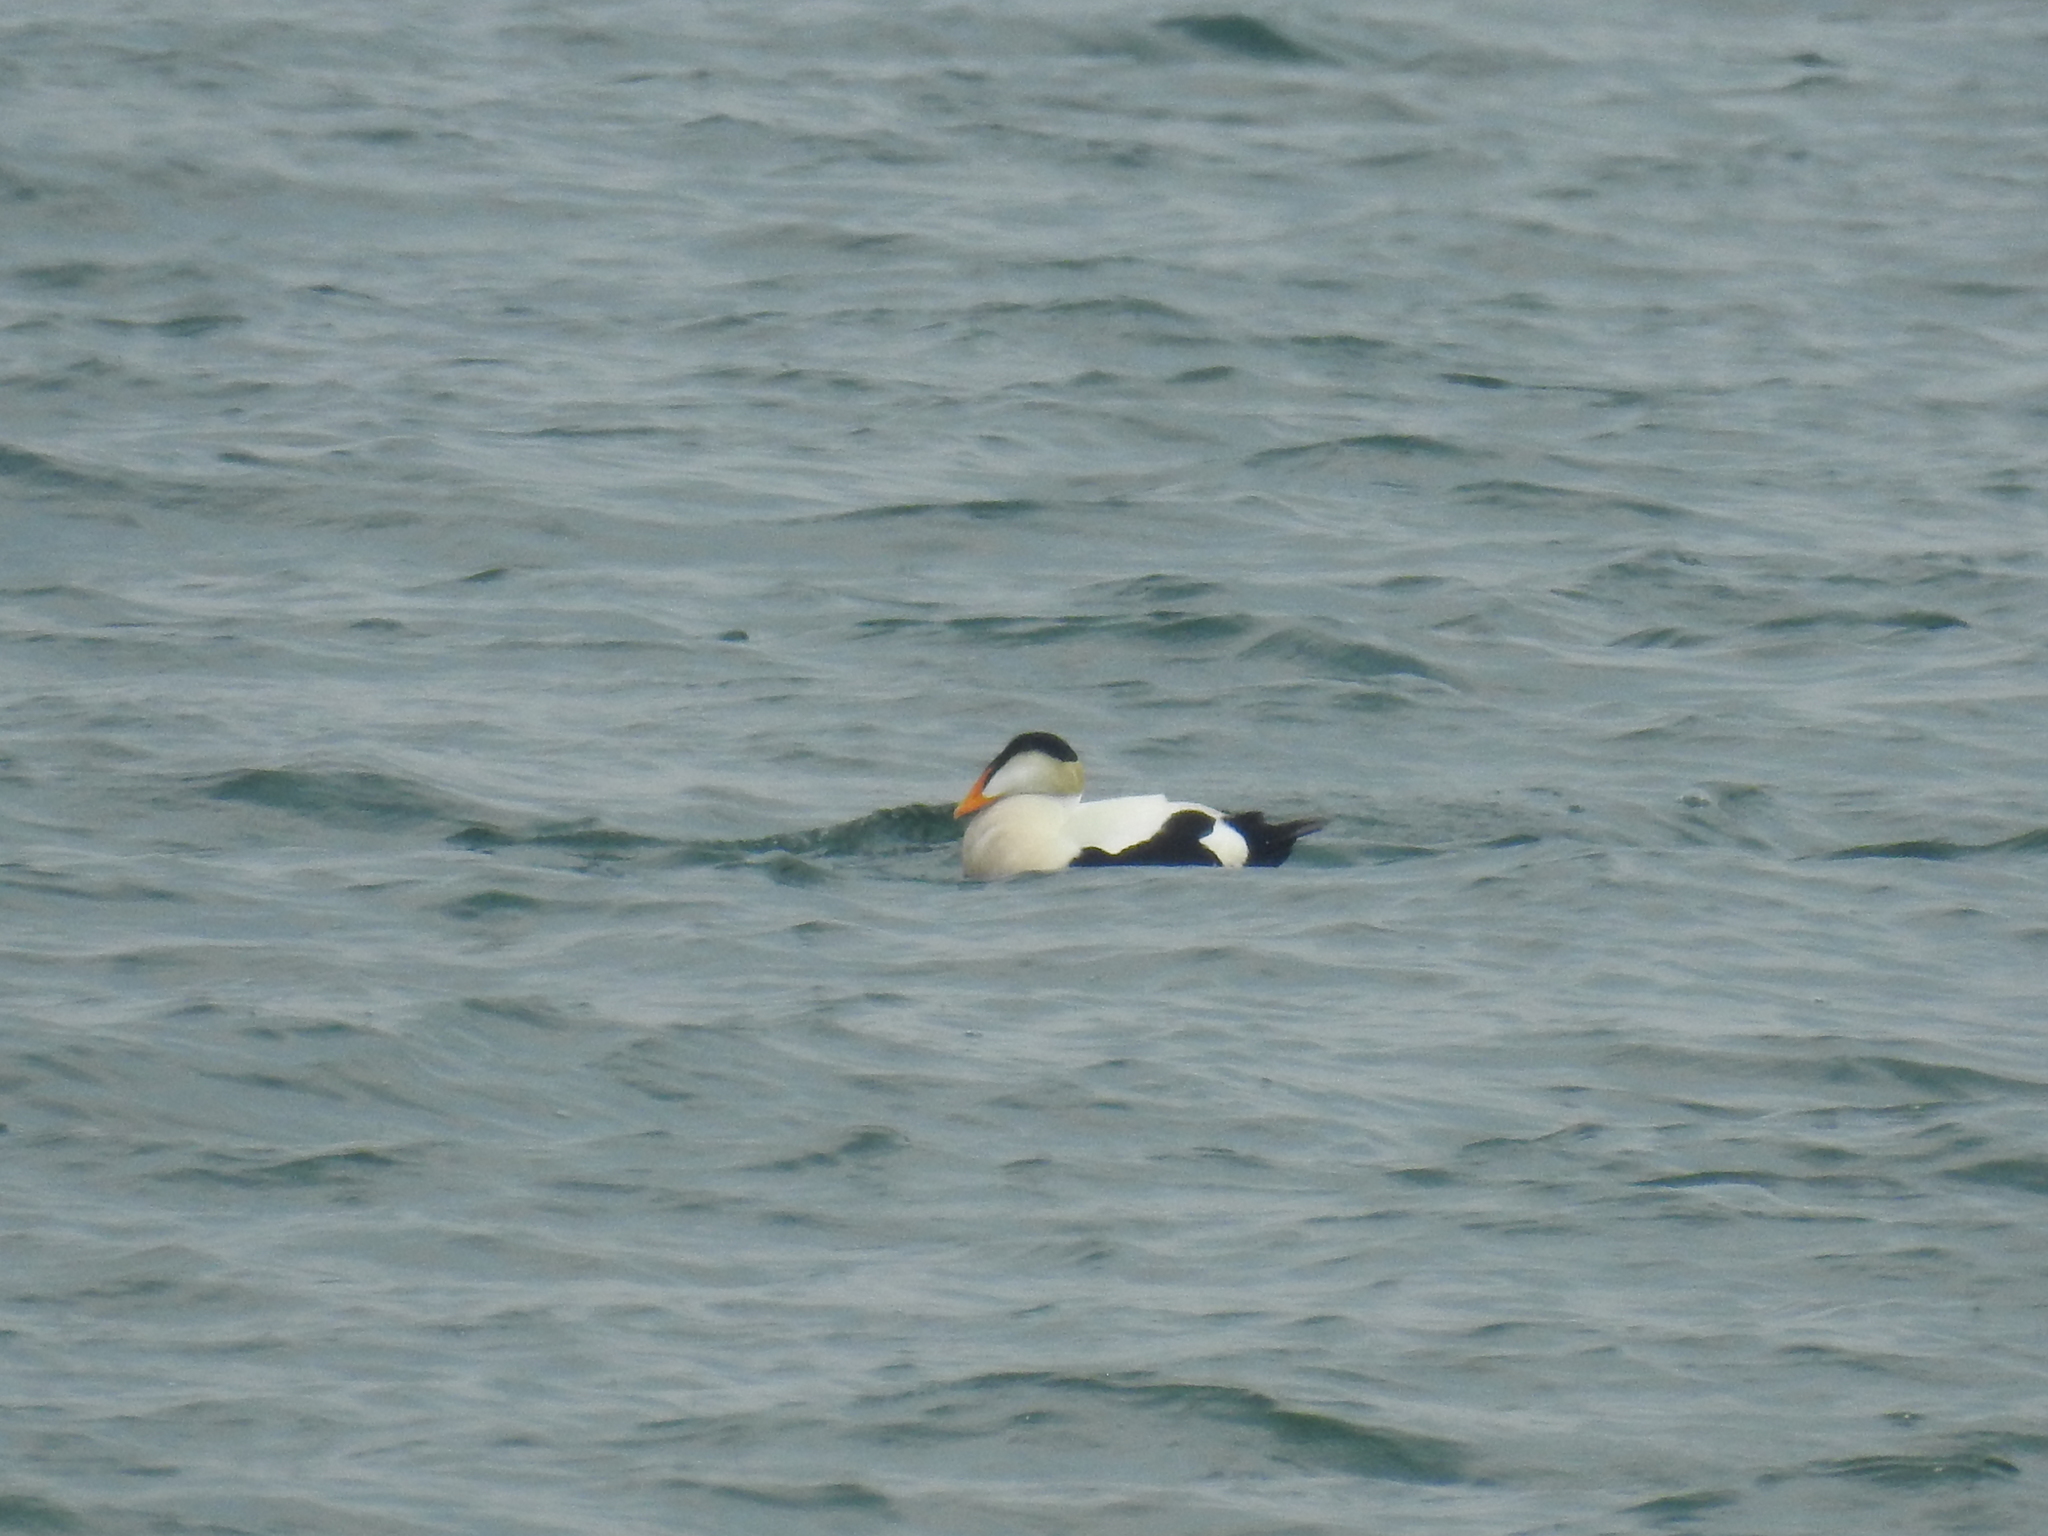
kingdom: Animalia
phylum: Chordata
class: Aves
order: Anseriformes
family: Anatidae
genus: Somateria
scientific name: Somateria mollissima
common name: Common eider
